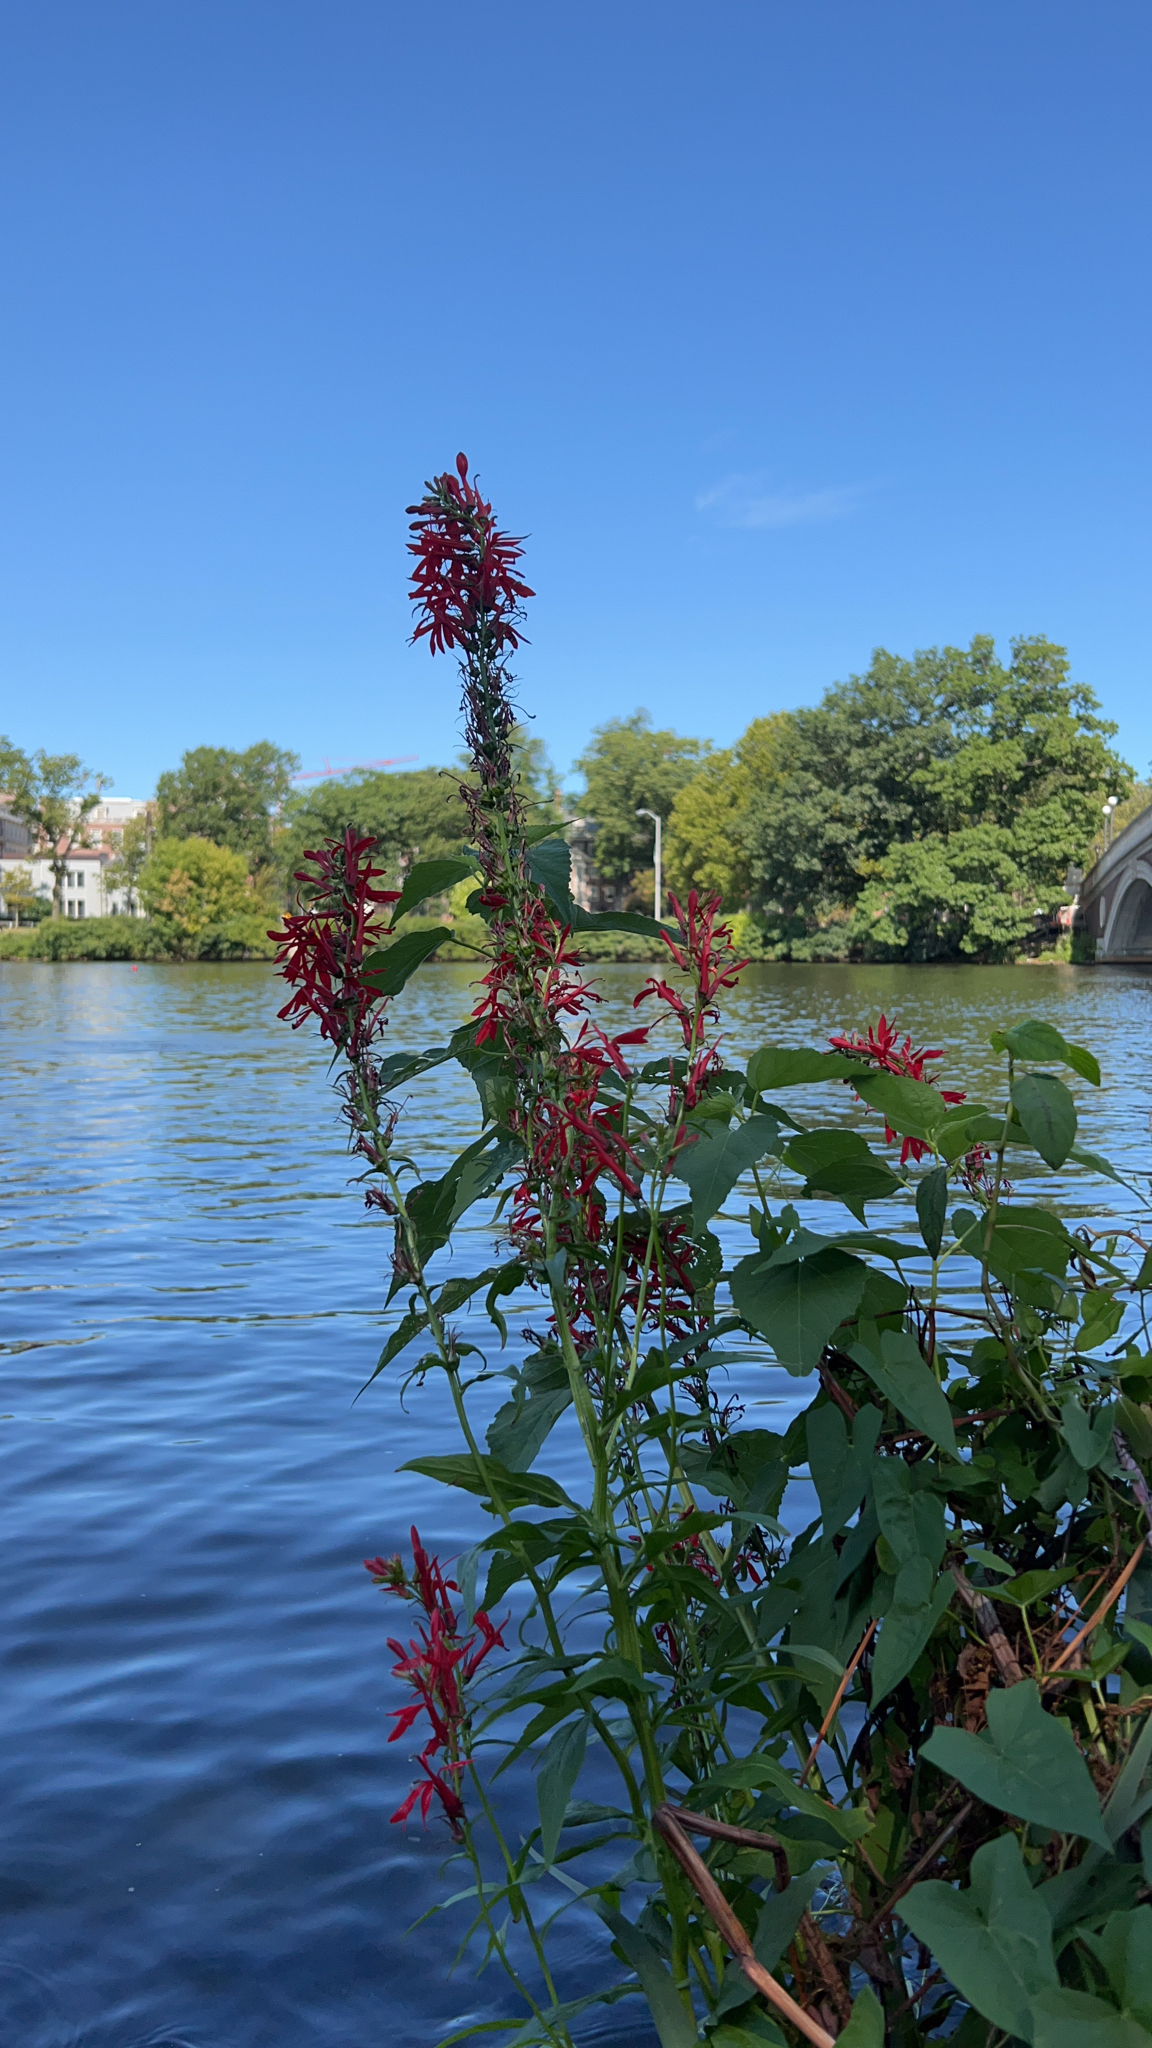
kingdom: Plantae
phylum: Tracheophyta
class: Magnoliopsida
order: Asterales
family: Campanulaceae
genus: Lobelia
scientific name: Lobelia cardinalis
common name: Cardinal flower
